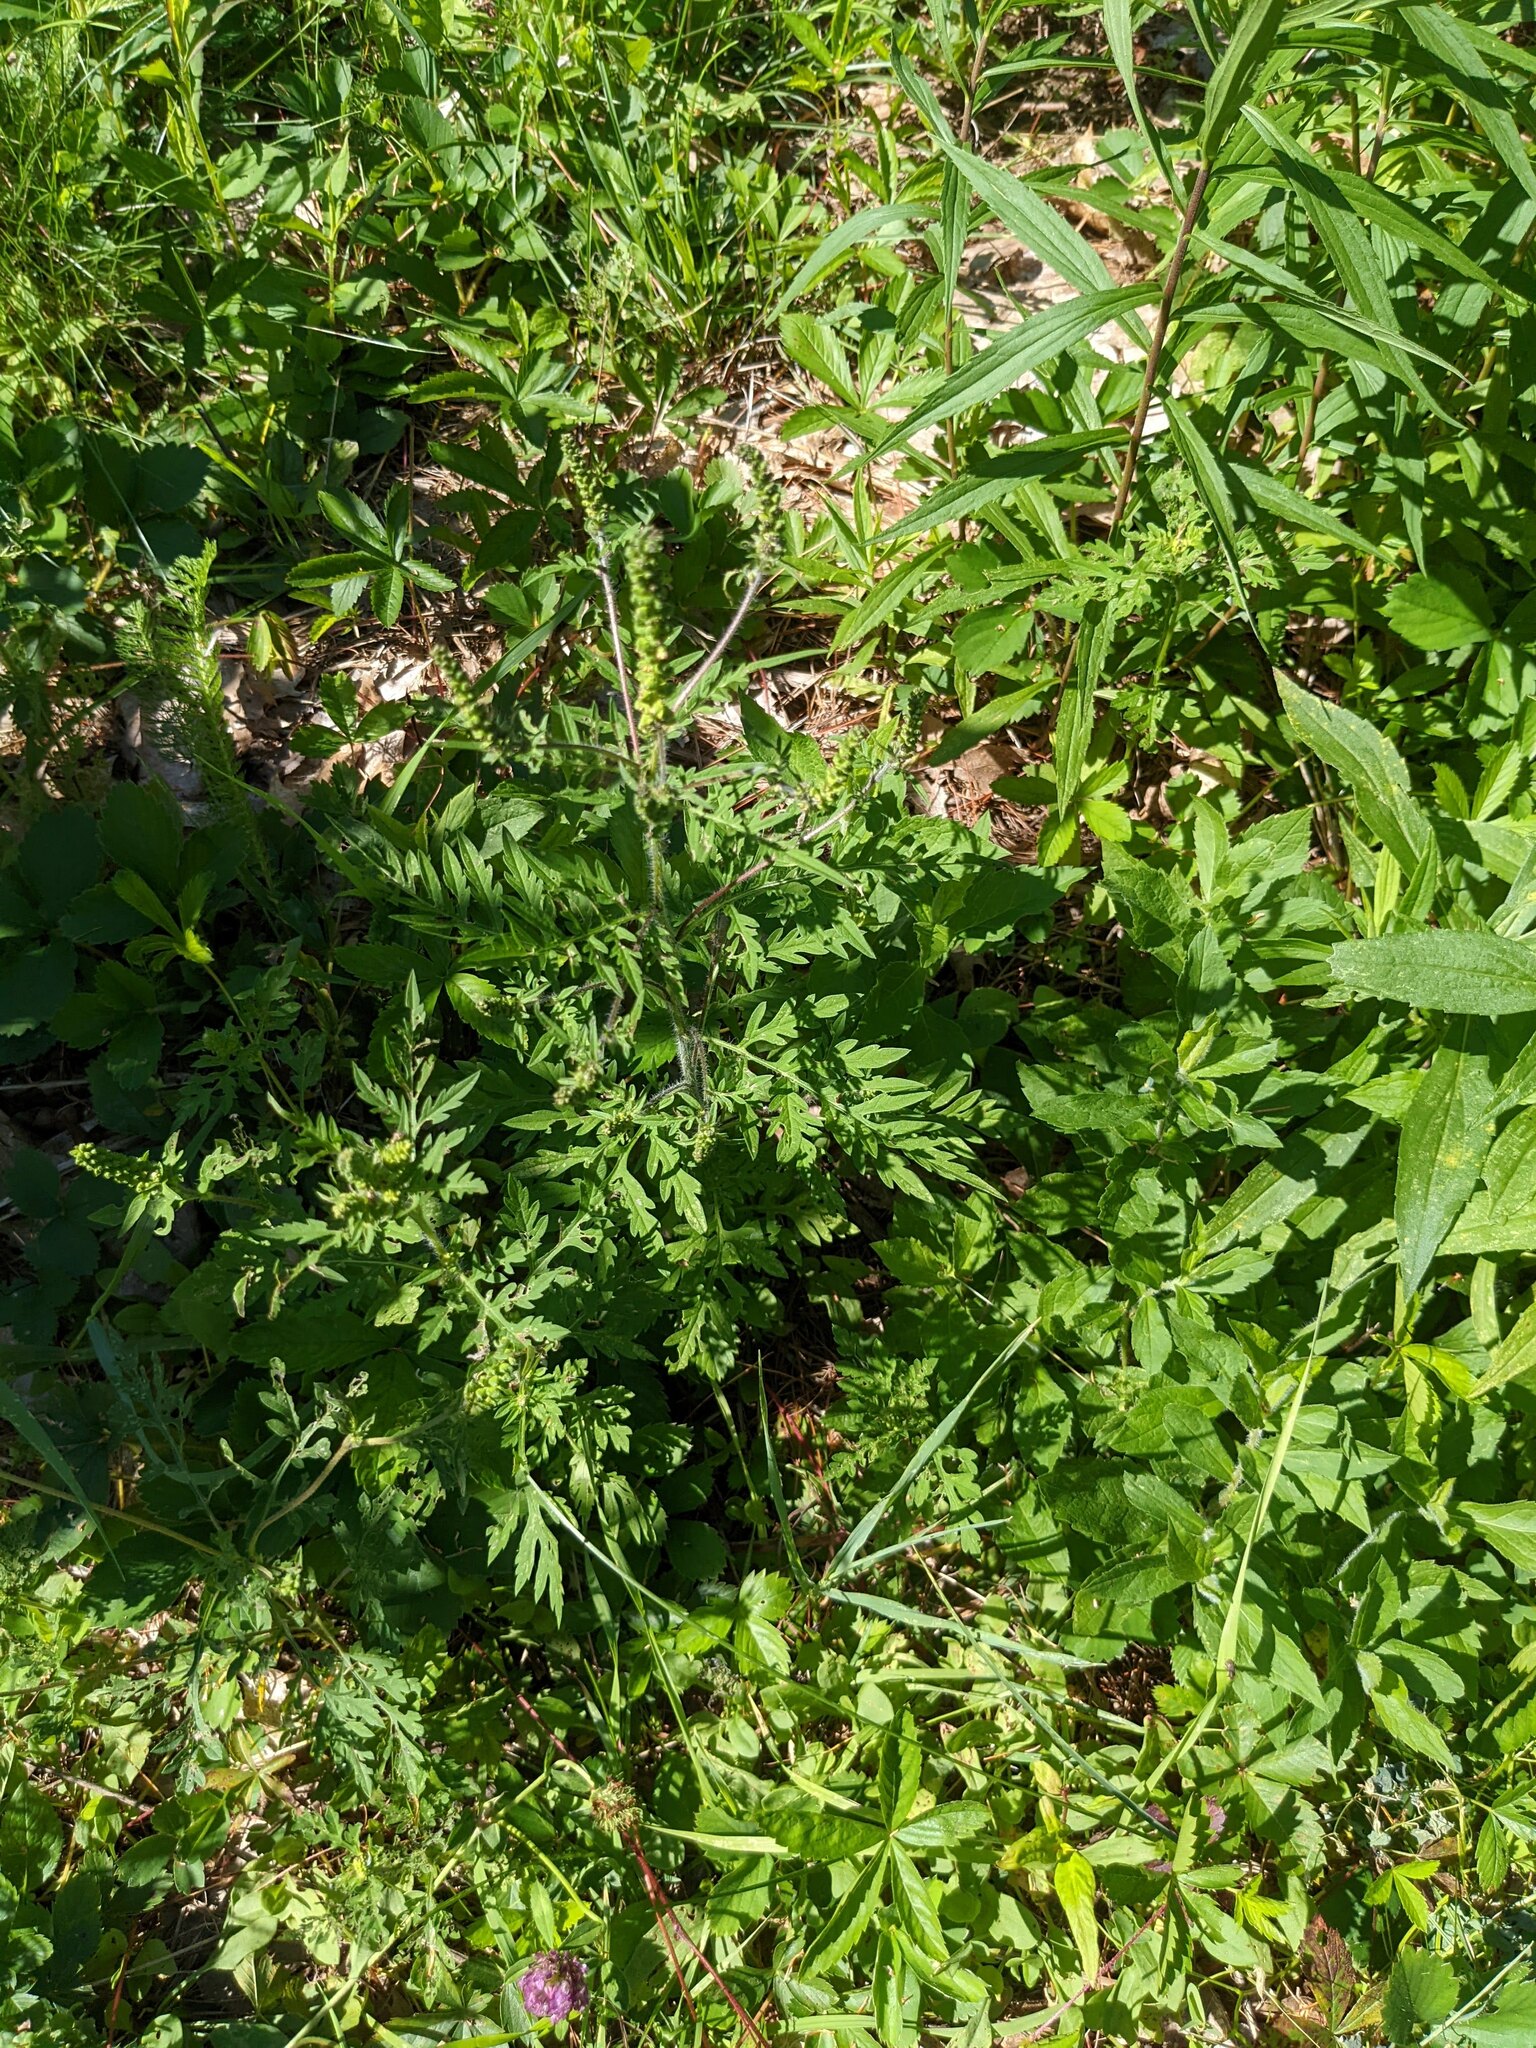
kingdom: Plantae
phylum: Tracheophyta
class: Magnoliopsida
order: Asterales
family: Asteraceae
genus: Ambrosia
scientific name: Ambrosia artemisiifolia
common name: Annual ragweed
